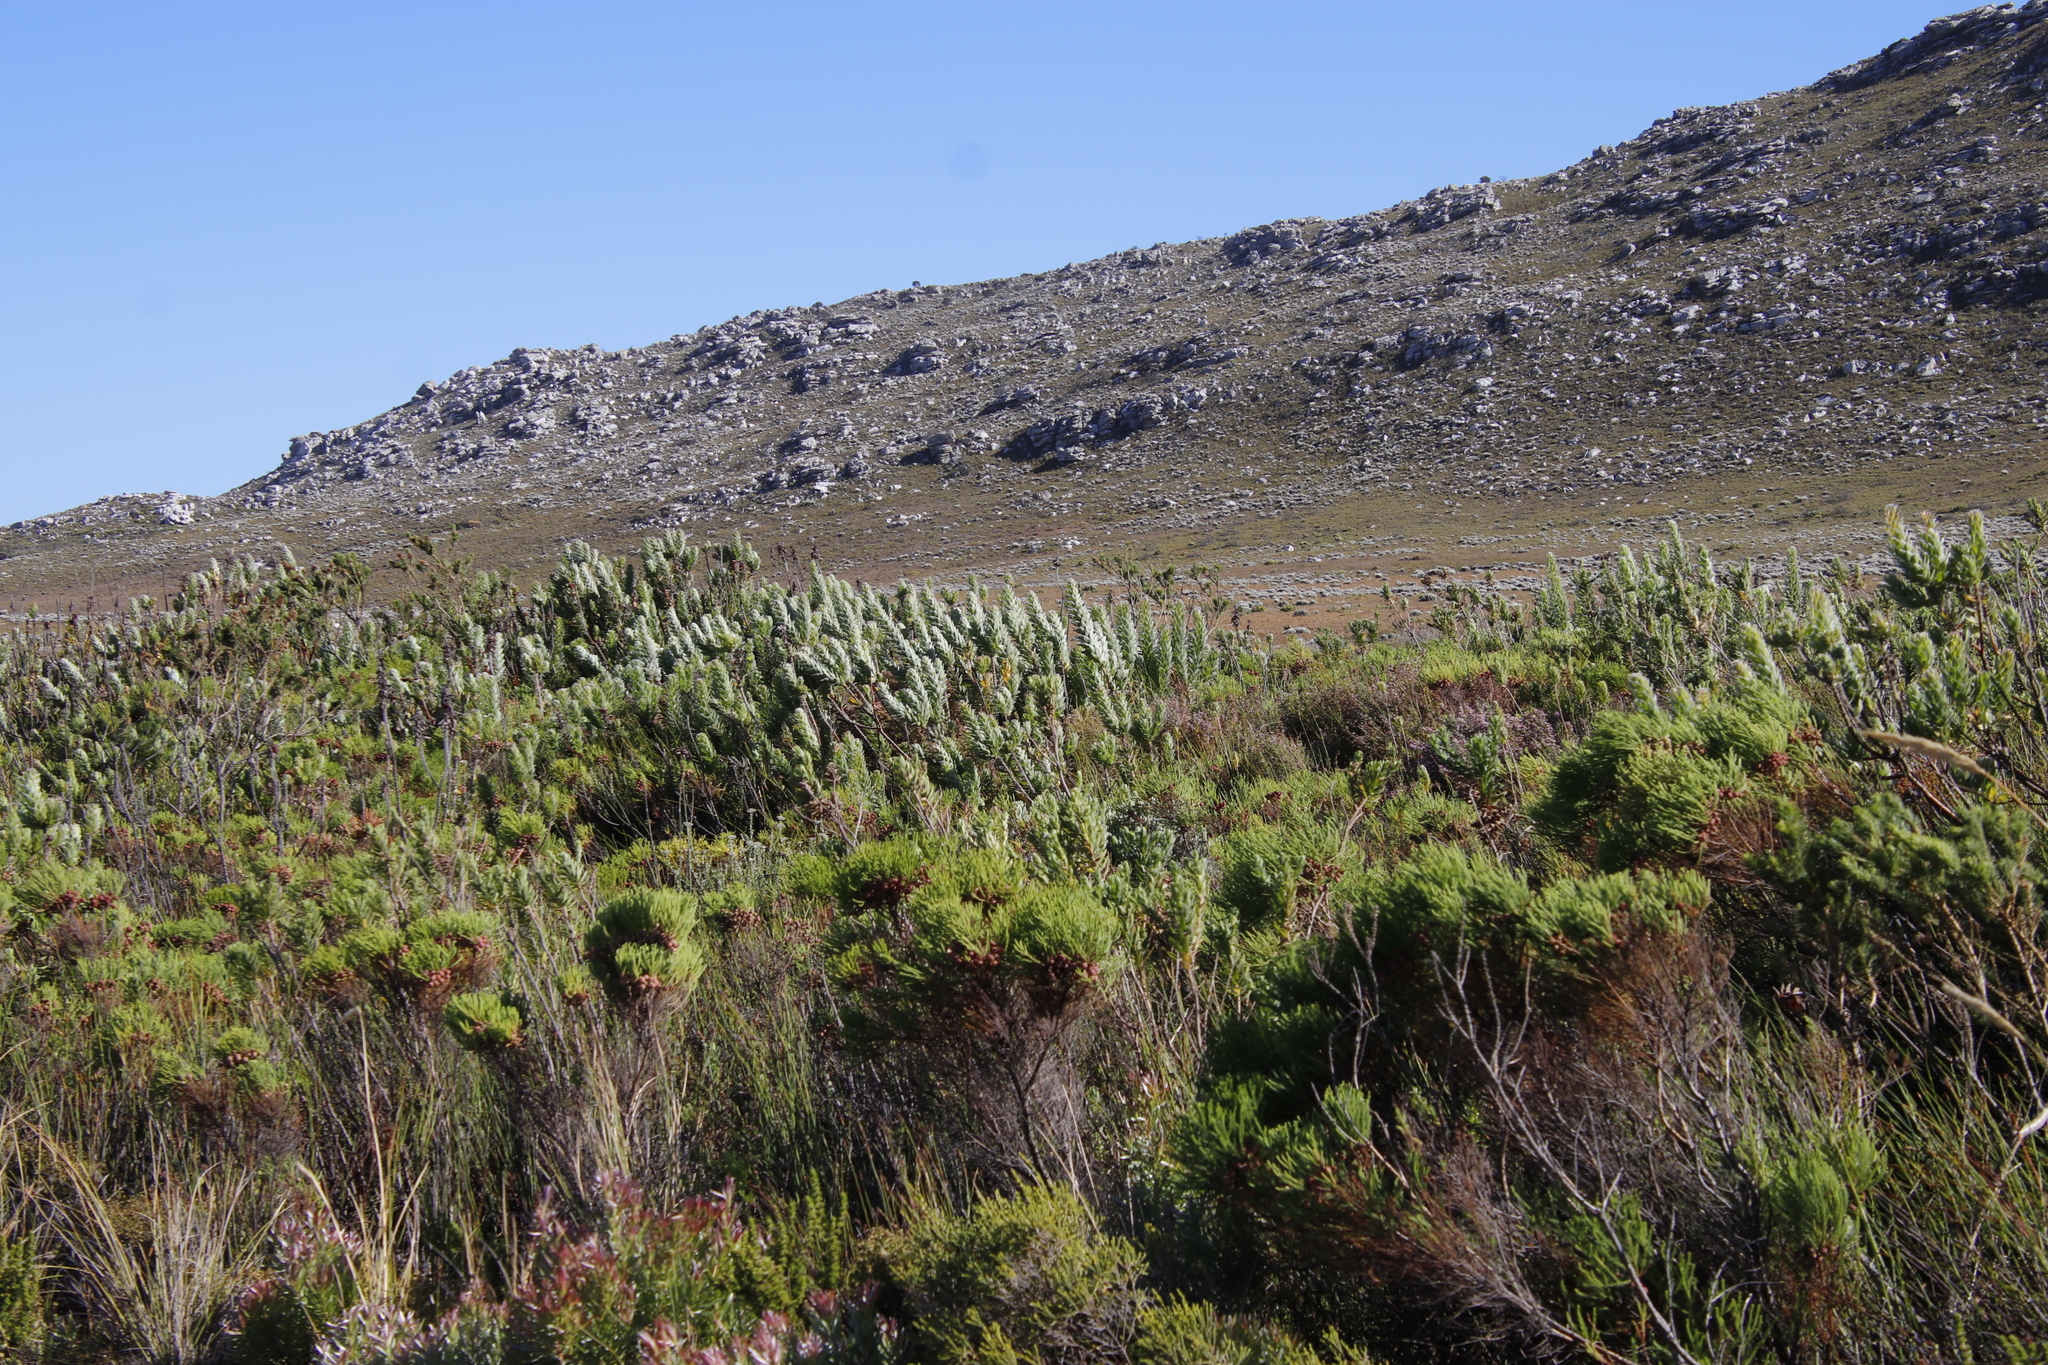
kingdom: Plantae
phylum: Tracheophyta
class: Magnoliopsida
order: Proteales
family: Proteaceae
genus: Mimetes
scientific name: Mimetes hirtus
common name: Marsh pagoda
